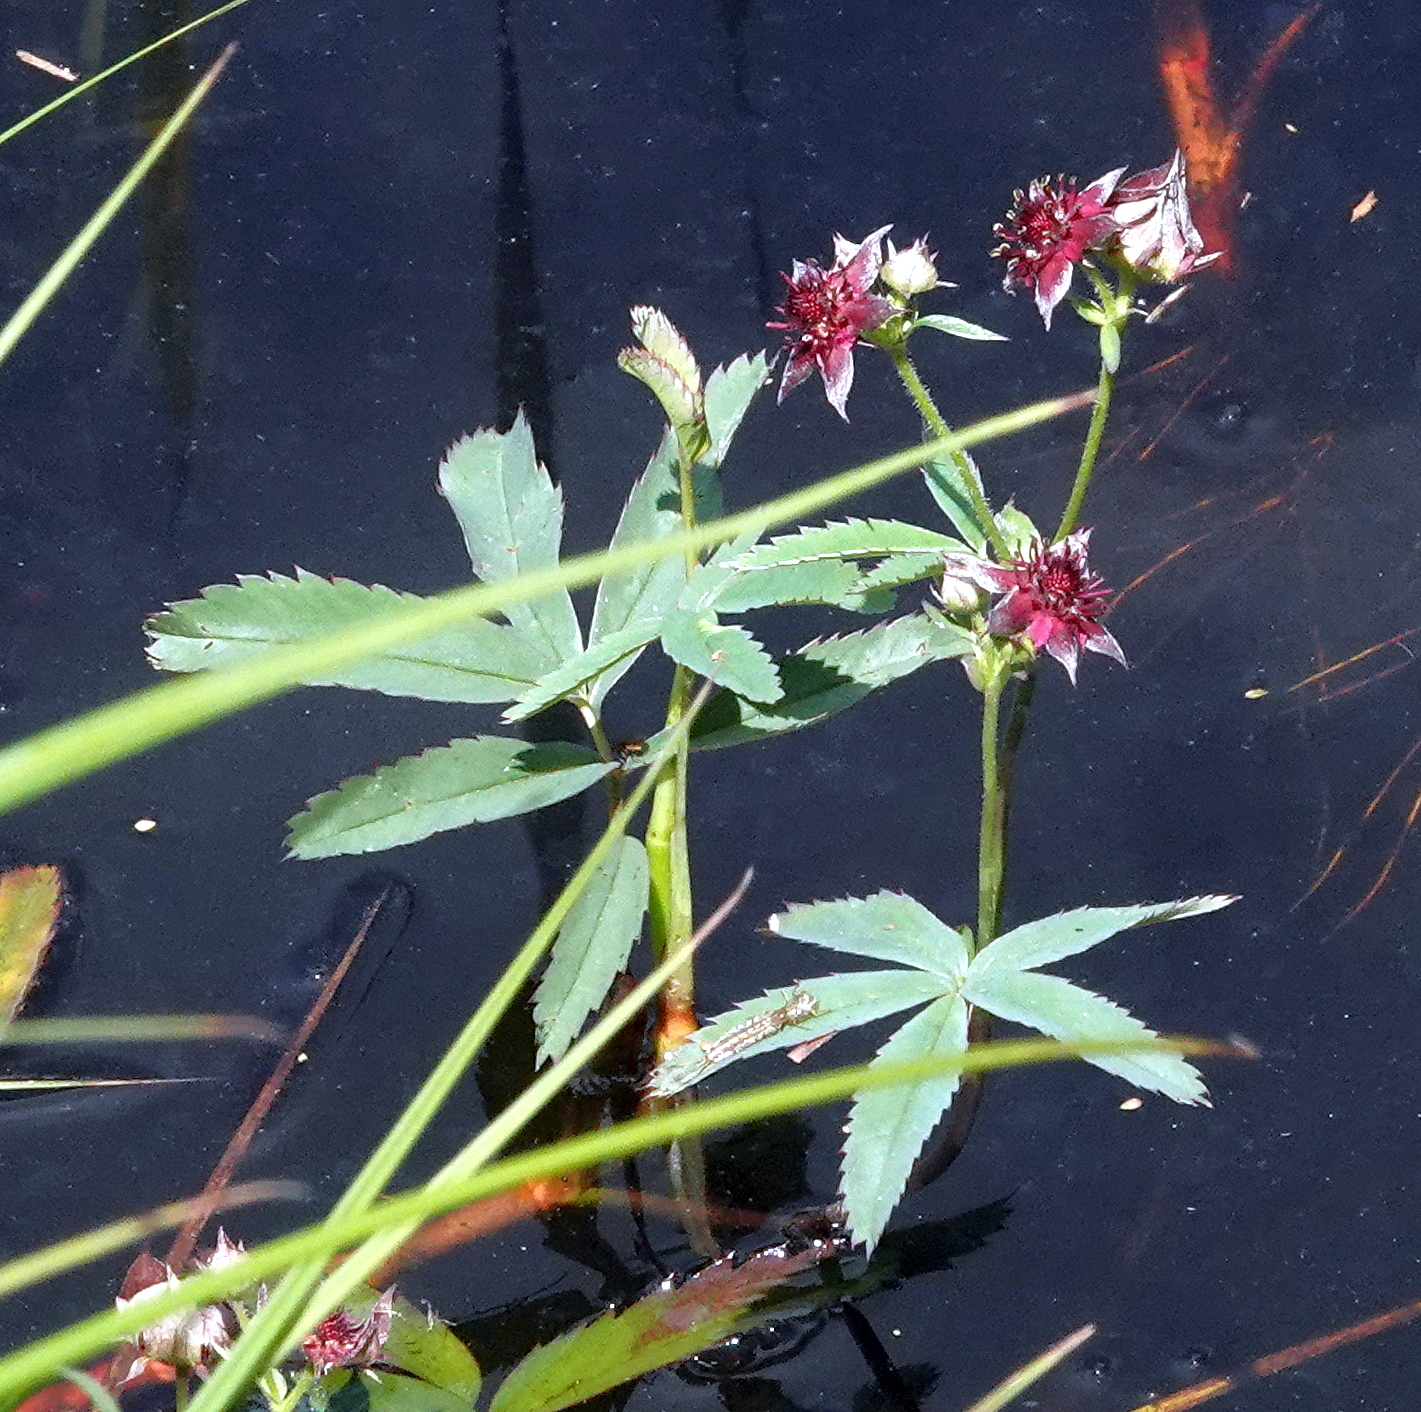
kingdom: Plantae
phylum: Tracheophyta
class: Magnoliopsida
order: Rosales
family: Rosaceae
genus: Comarum
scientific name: Comarum palustre
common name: Marsh cinquefoil
